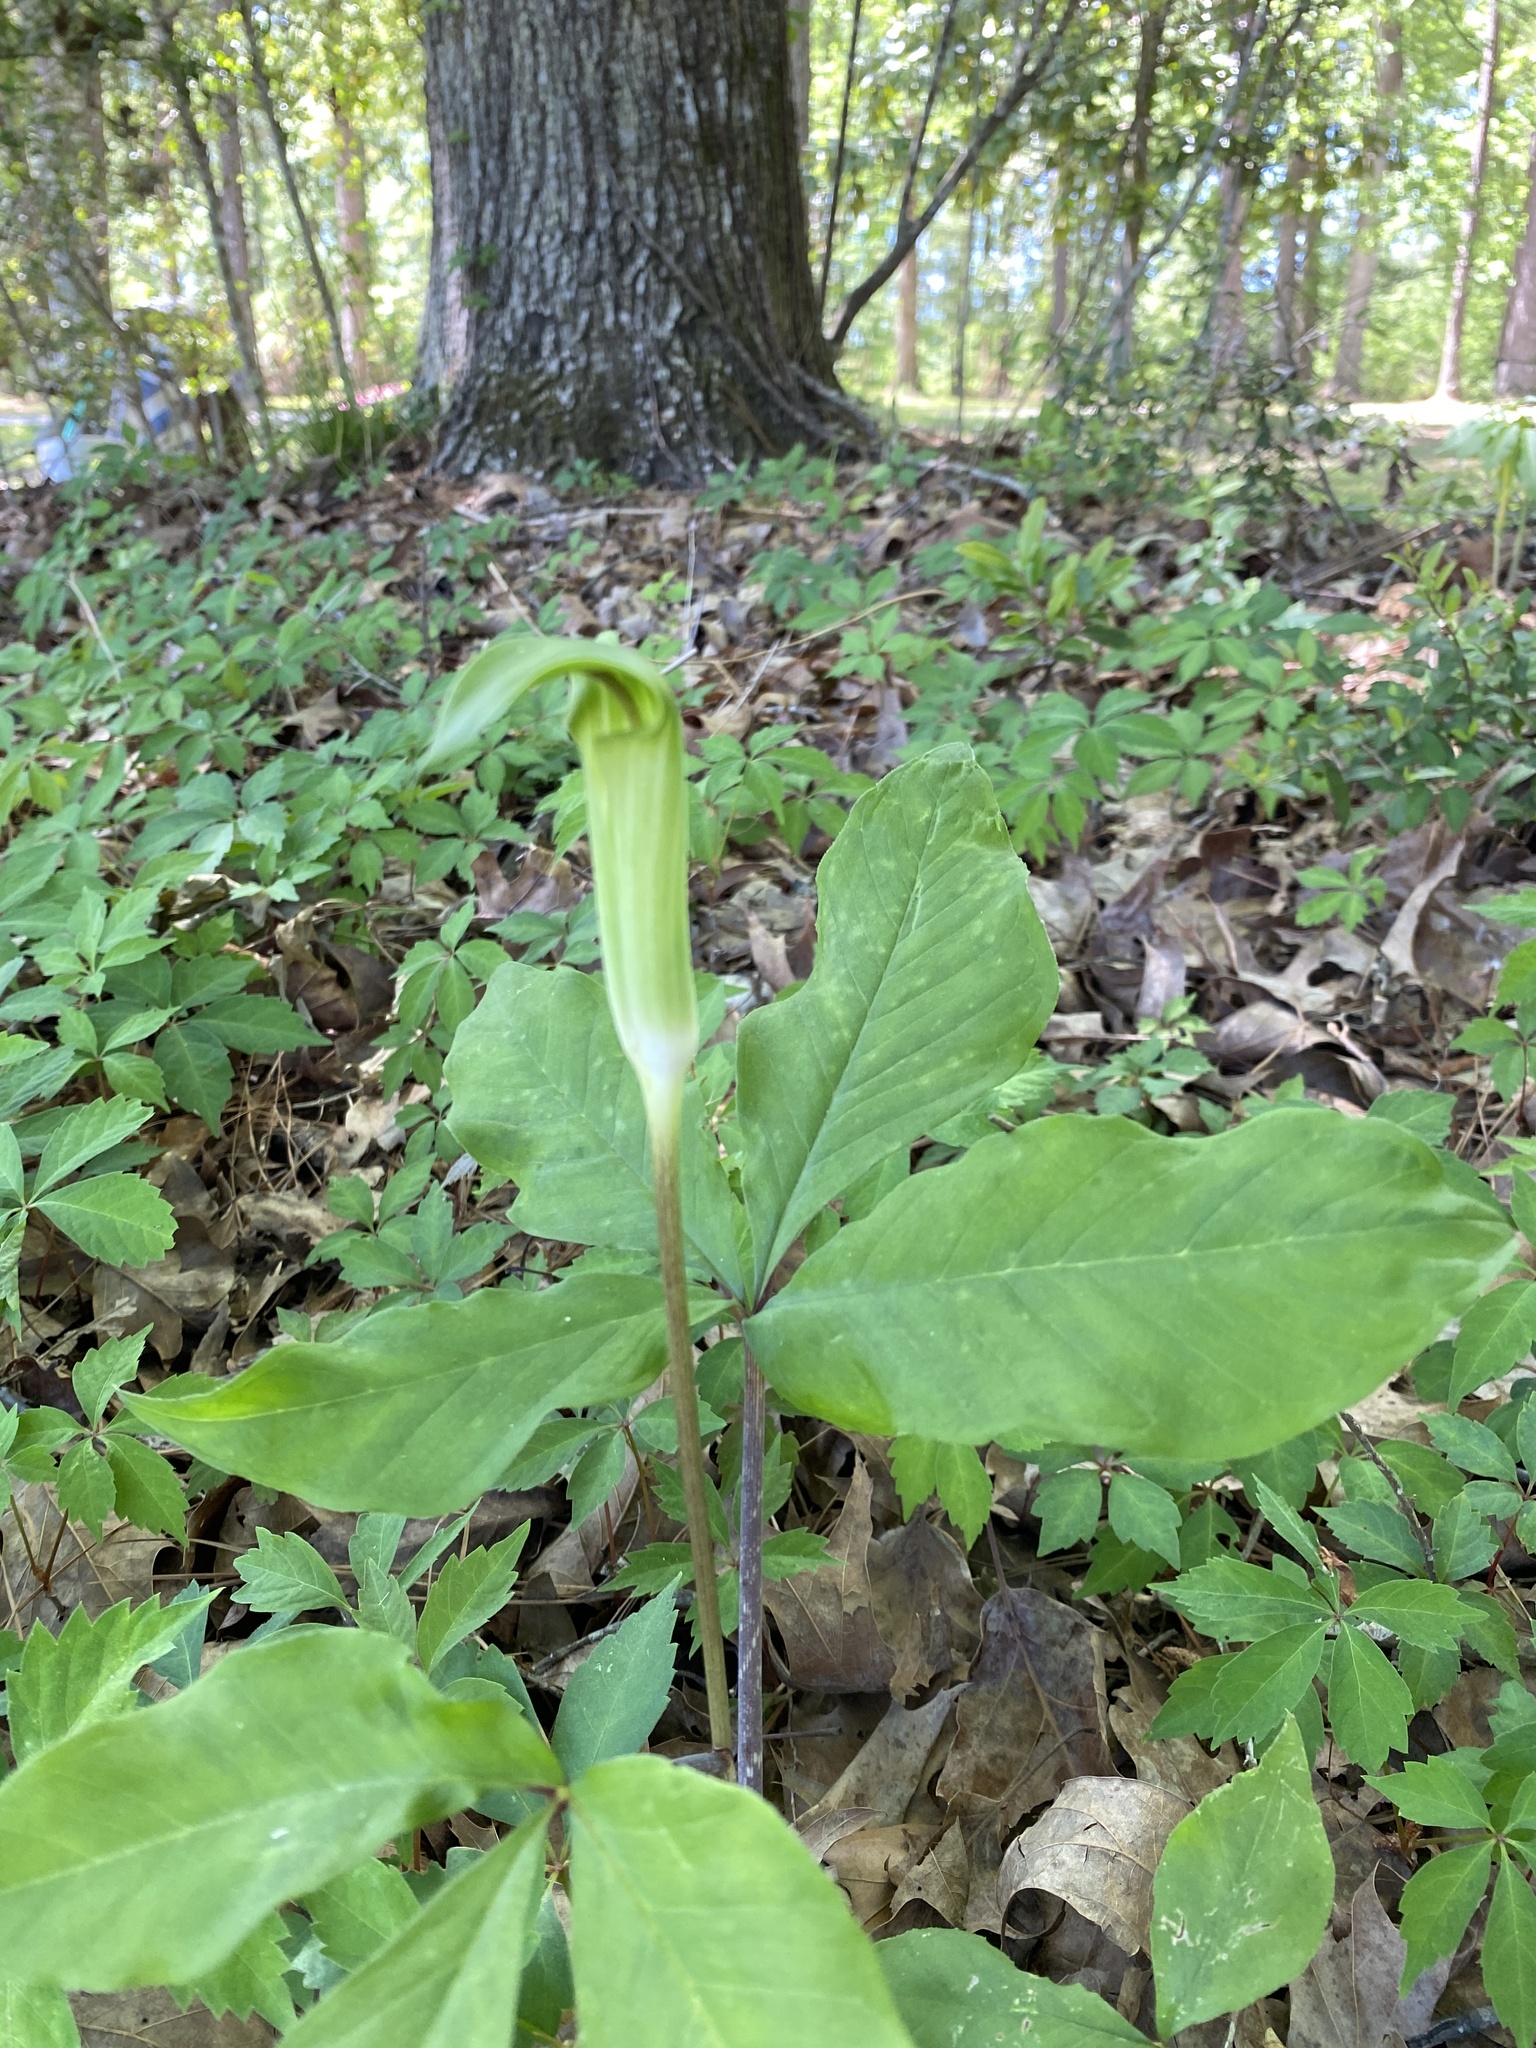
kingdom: Plantae
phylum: Tracheophyta
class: Liliopsida
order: Alismatales
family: Araceae
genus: Arisaema
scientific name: Arisaema quinatum
